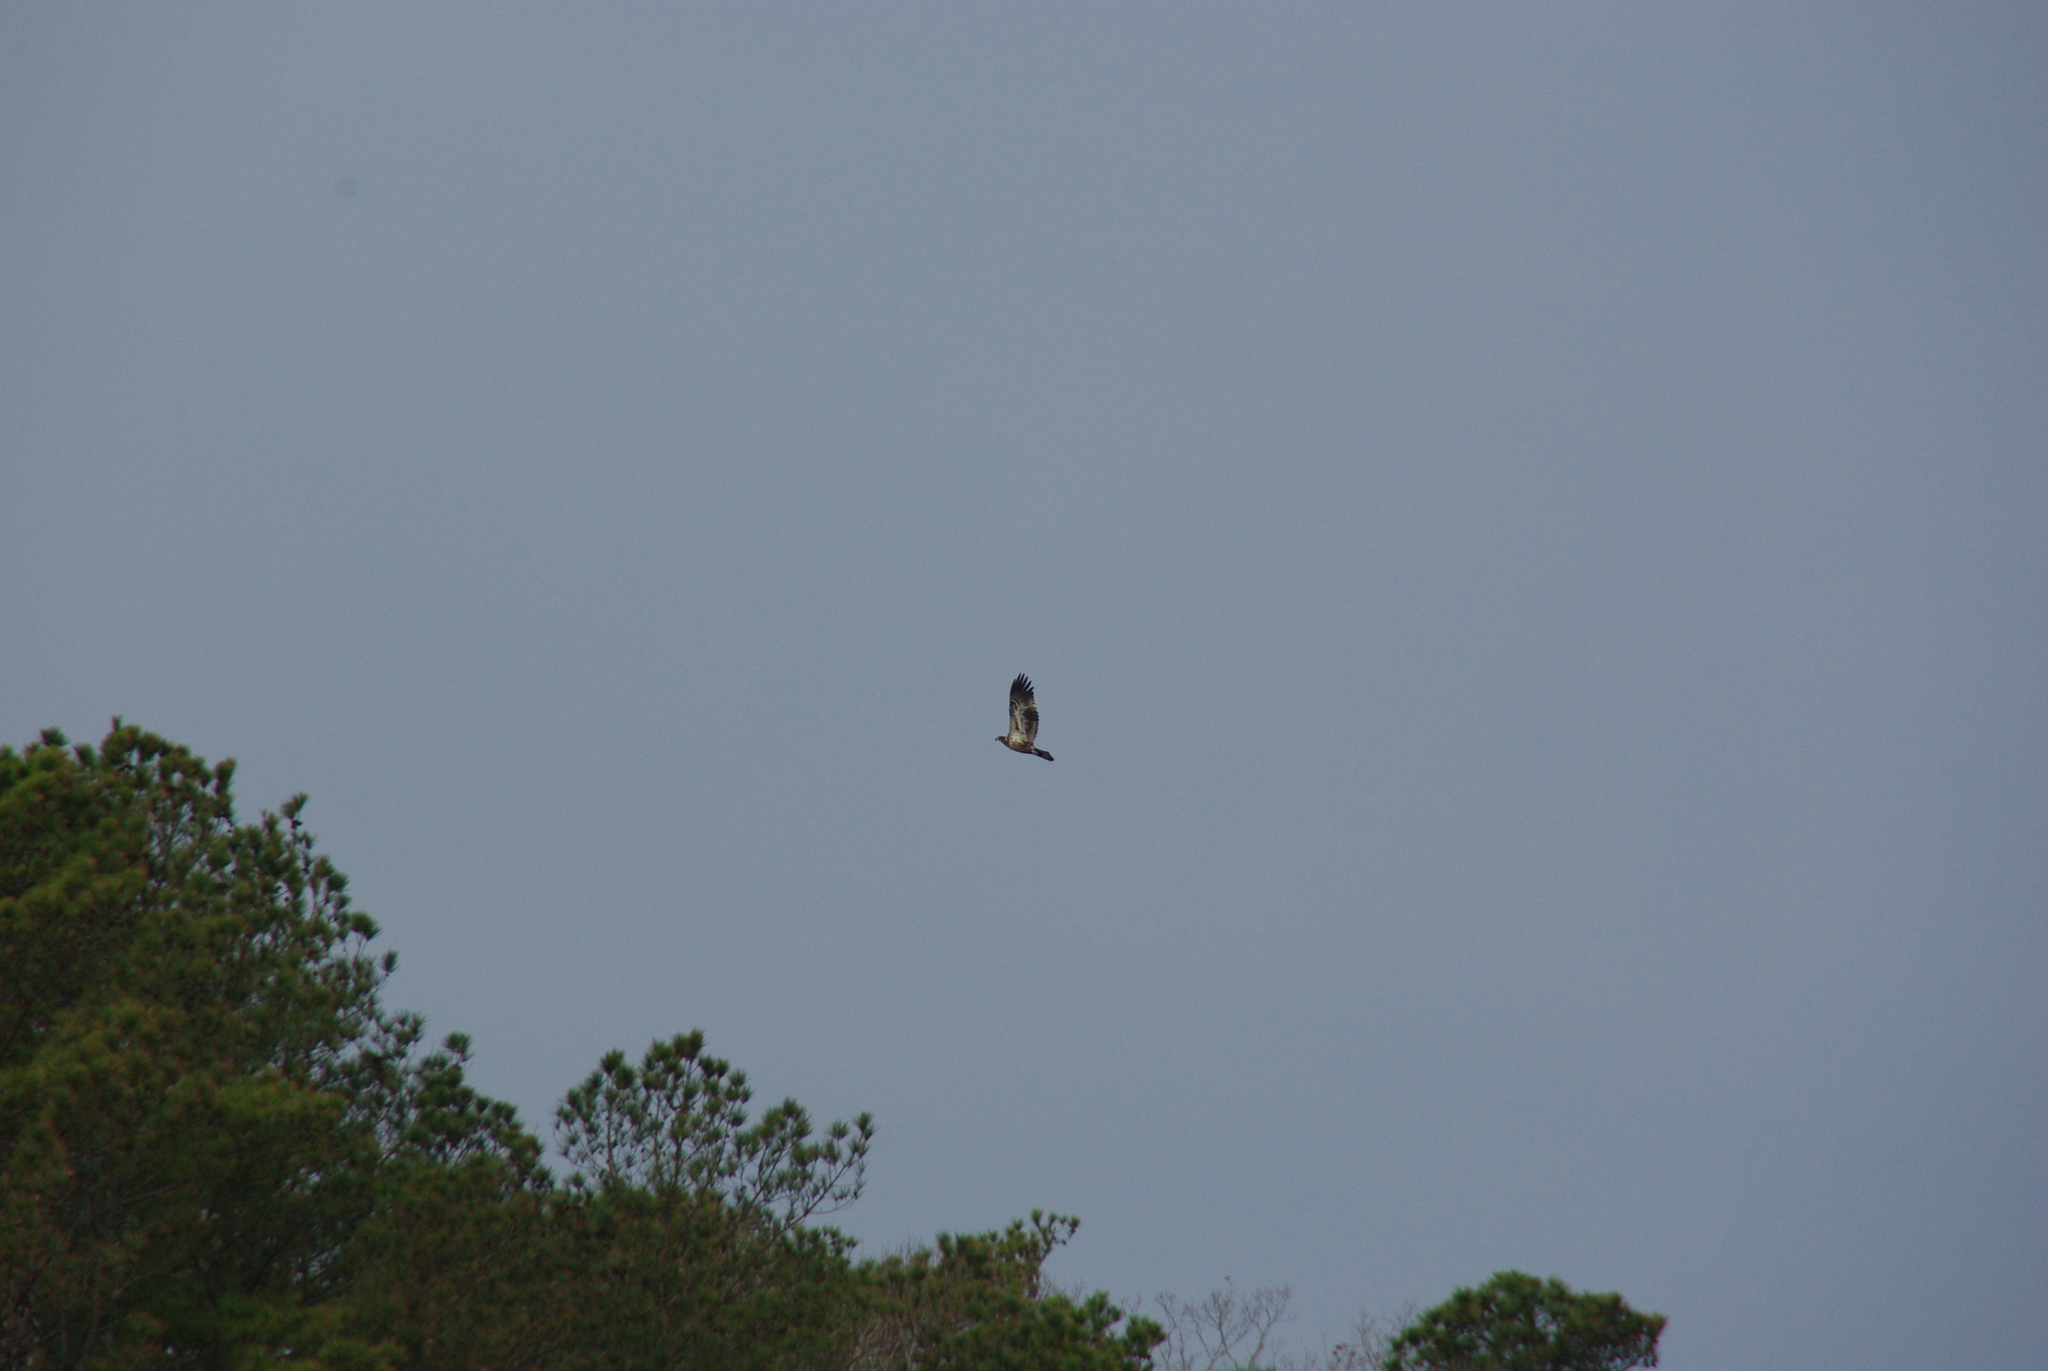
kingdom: Animalia
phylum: Chordata
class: Aves
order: Accipitriformes
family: Accipitridae
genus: Haliaeetus
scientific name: Haliaeetus leucocephalus
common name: Bald eagle
